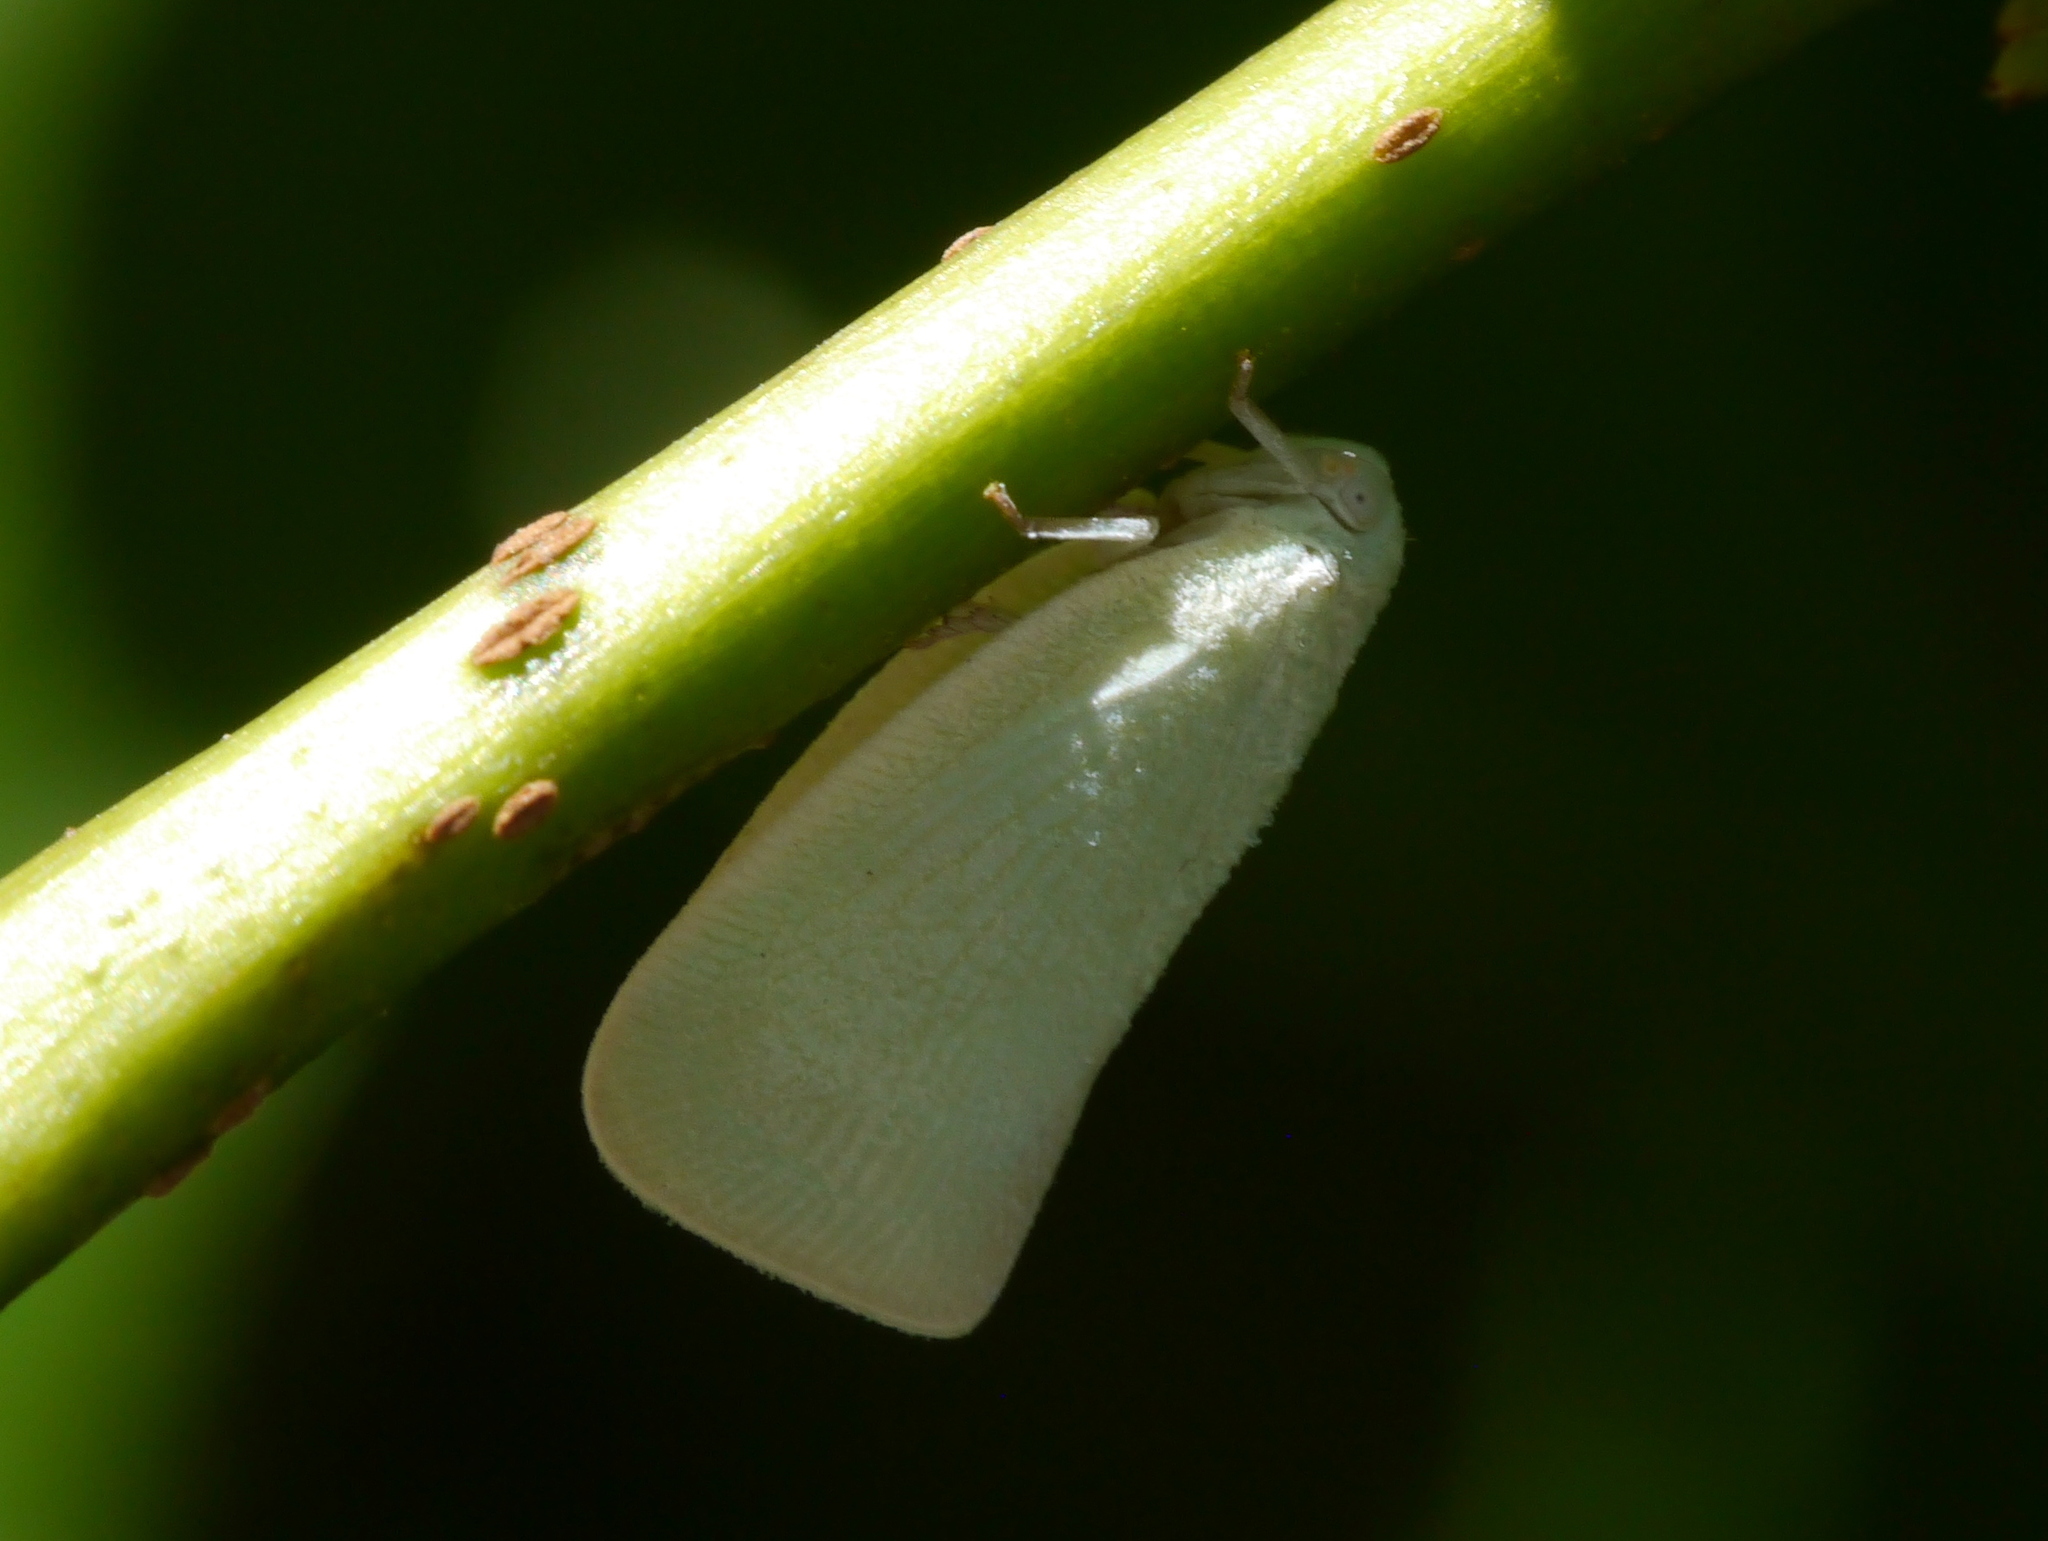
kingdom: Animalia
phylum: Arthropoda
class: Insecta
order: Hemiptera
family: Flatidae
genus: Flatormenis
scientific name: Flatormenis proxima
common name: Northern flatid planthopper
